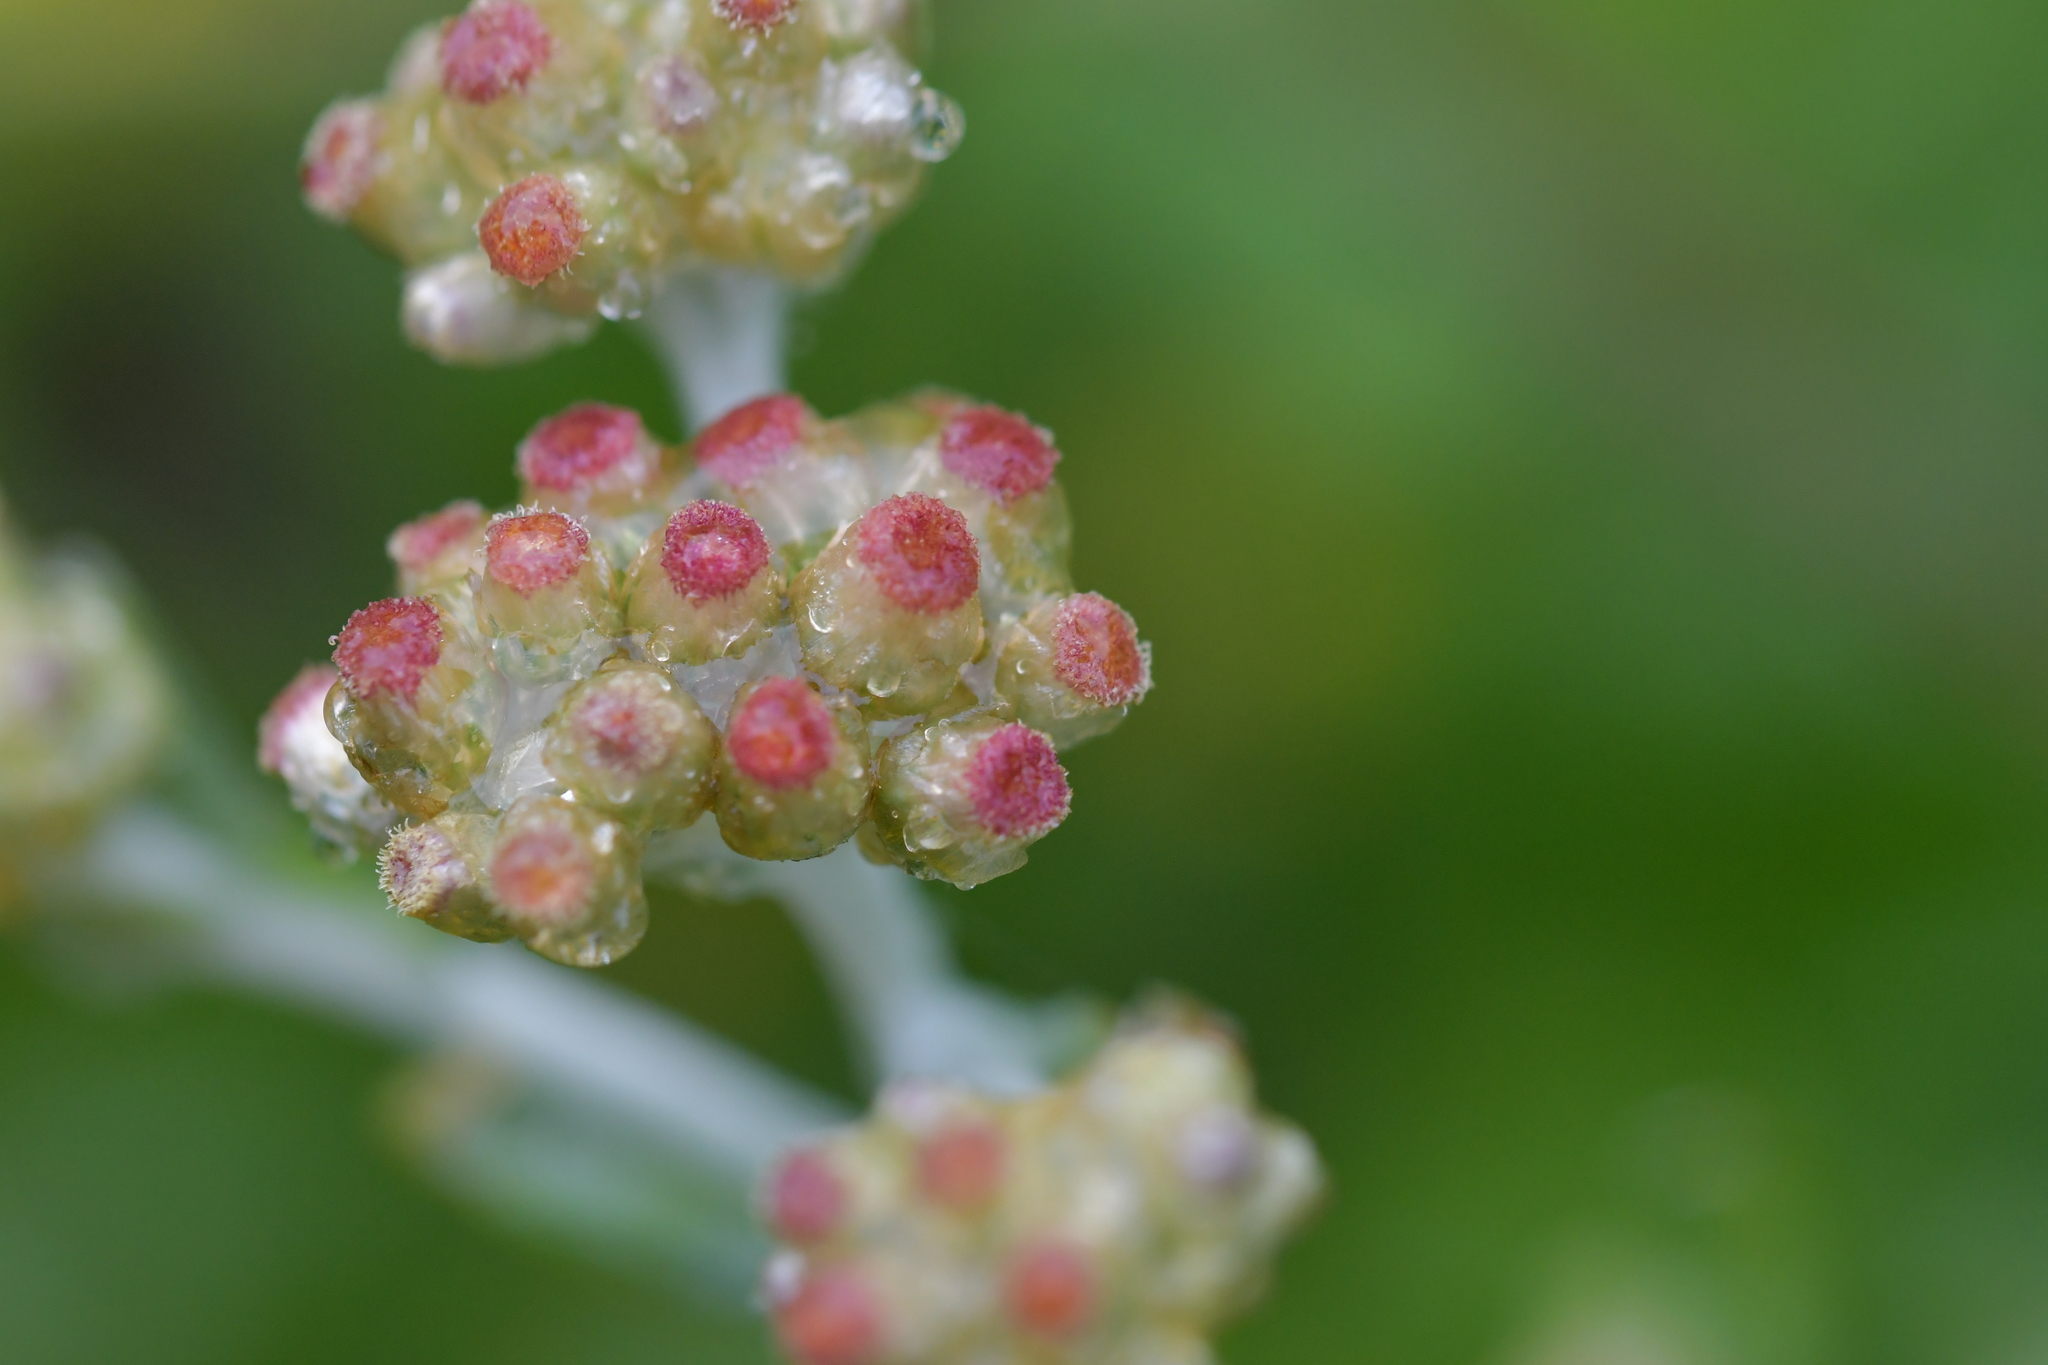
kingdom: Plantae
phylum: Tracheophyta
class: Magnoliopsida
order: Asterales
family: Asteraceae
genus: Helichrysum
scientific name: Helichrysum luteoalbum
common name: Daisy
